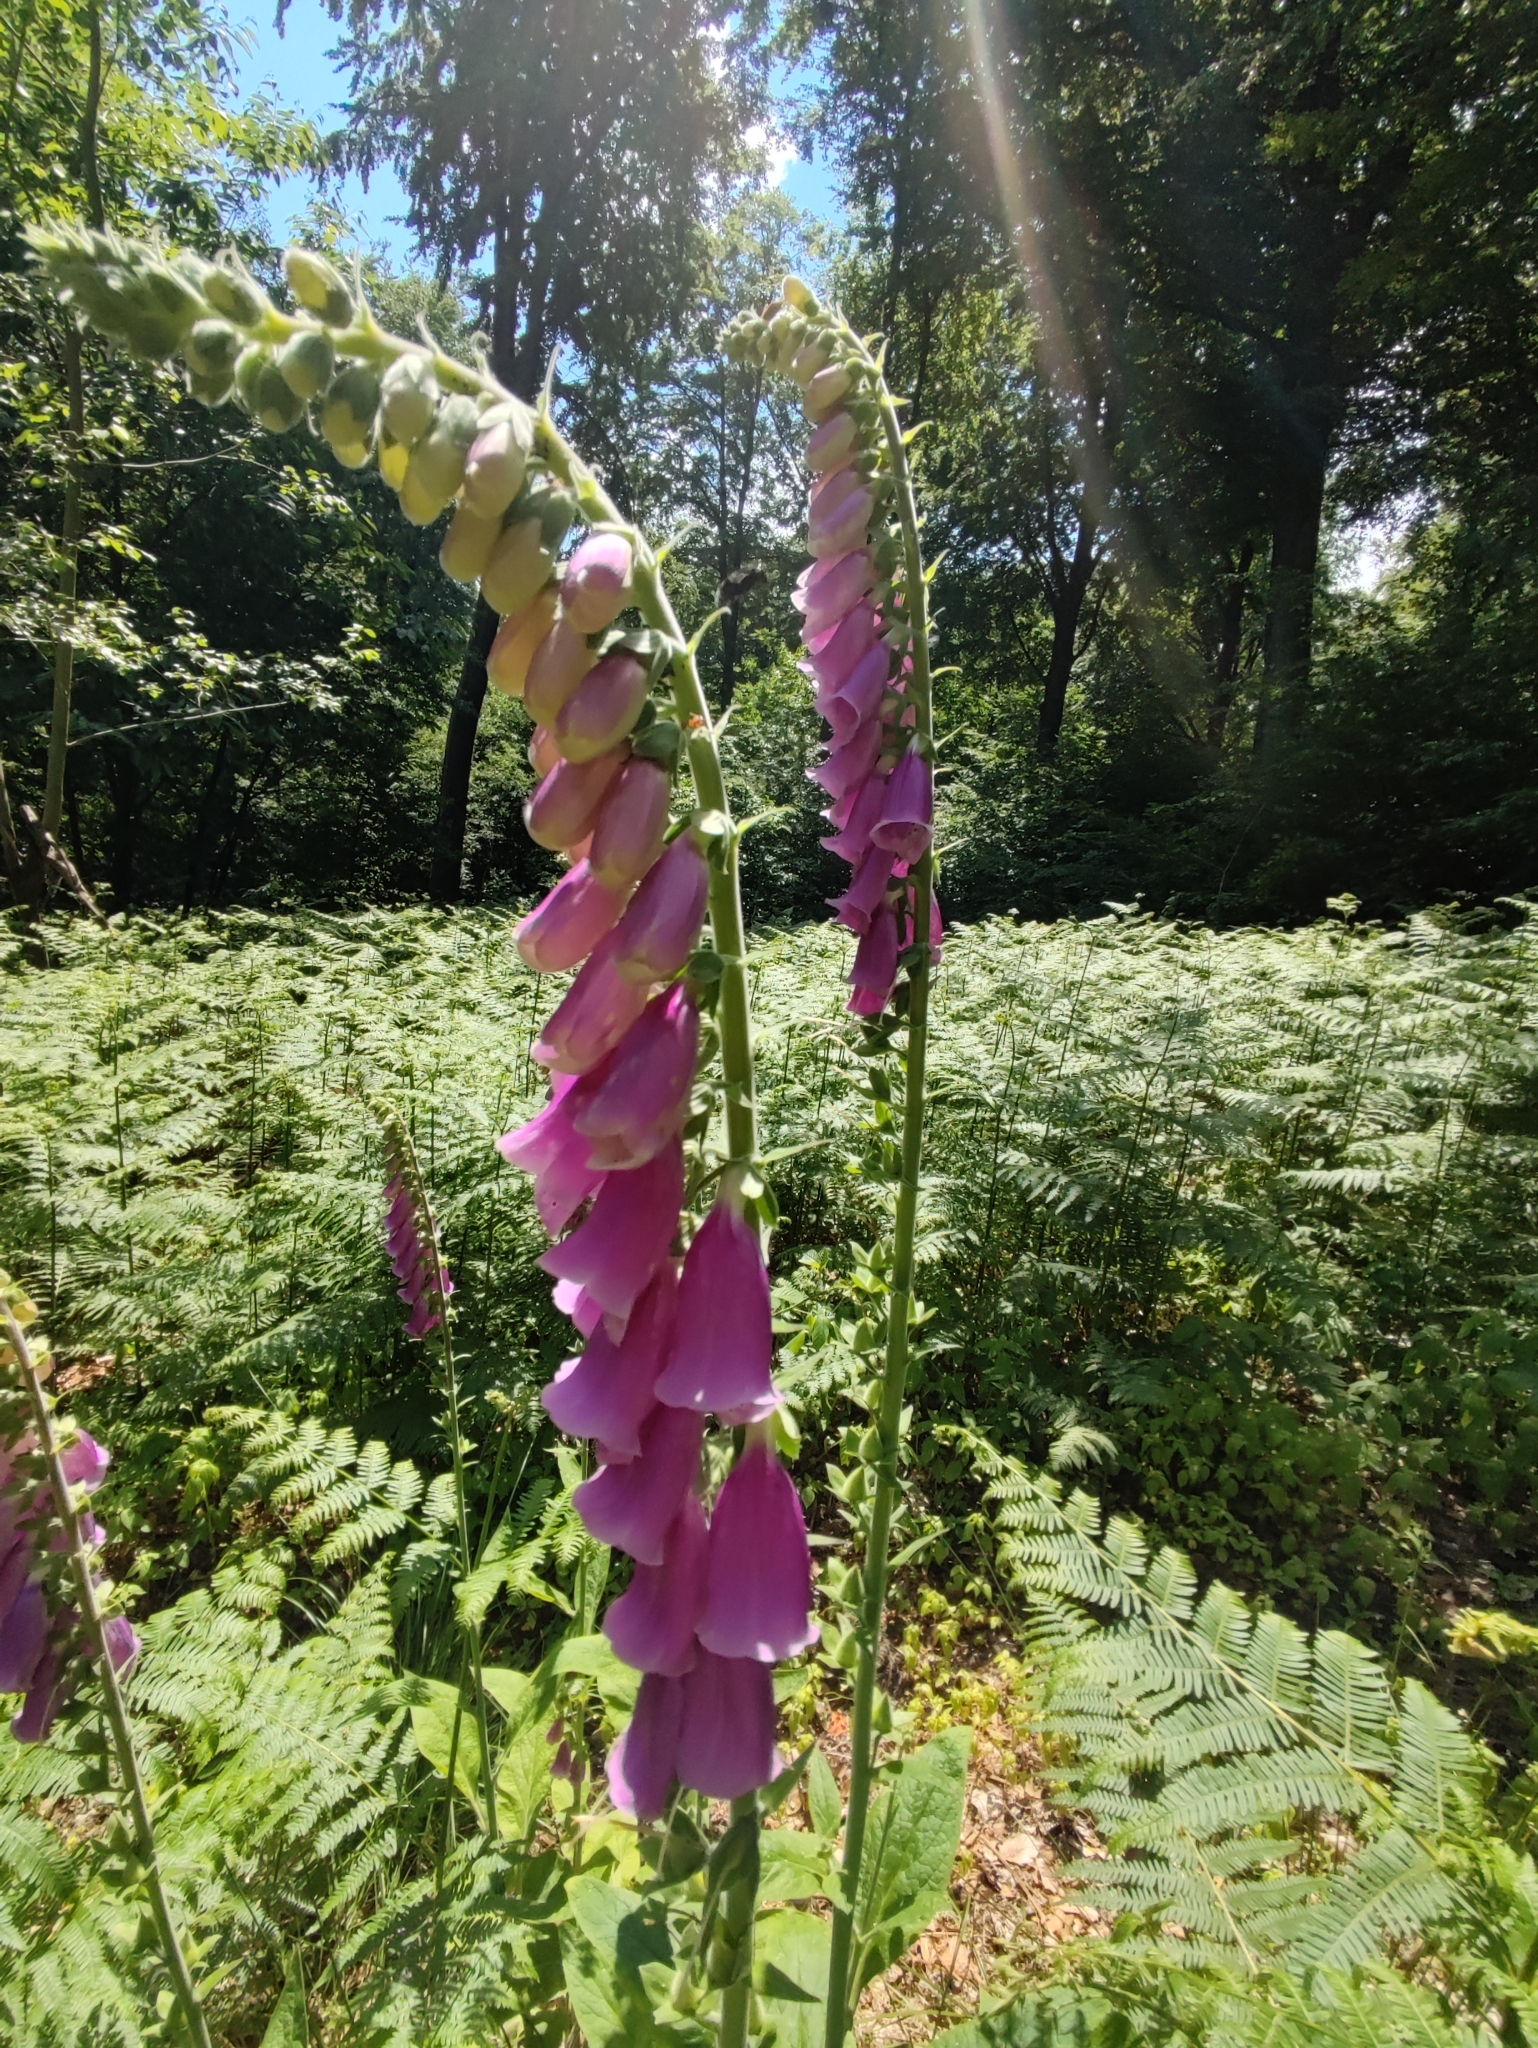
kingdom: Plantae
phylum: Tracheophyta
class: Magnoliopsida
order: Lamiales
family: Plantaginaceae
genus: Digitalis
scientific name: Digitalis purpurea
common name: Foxglove
